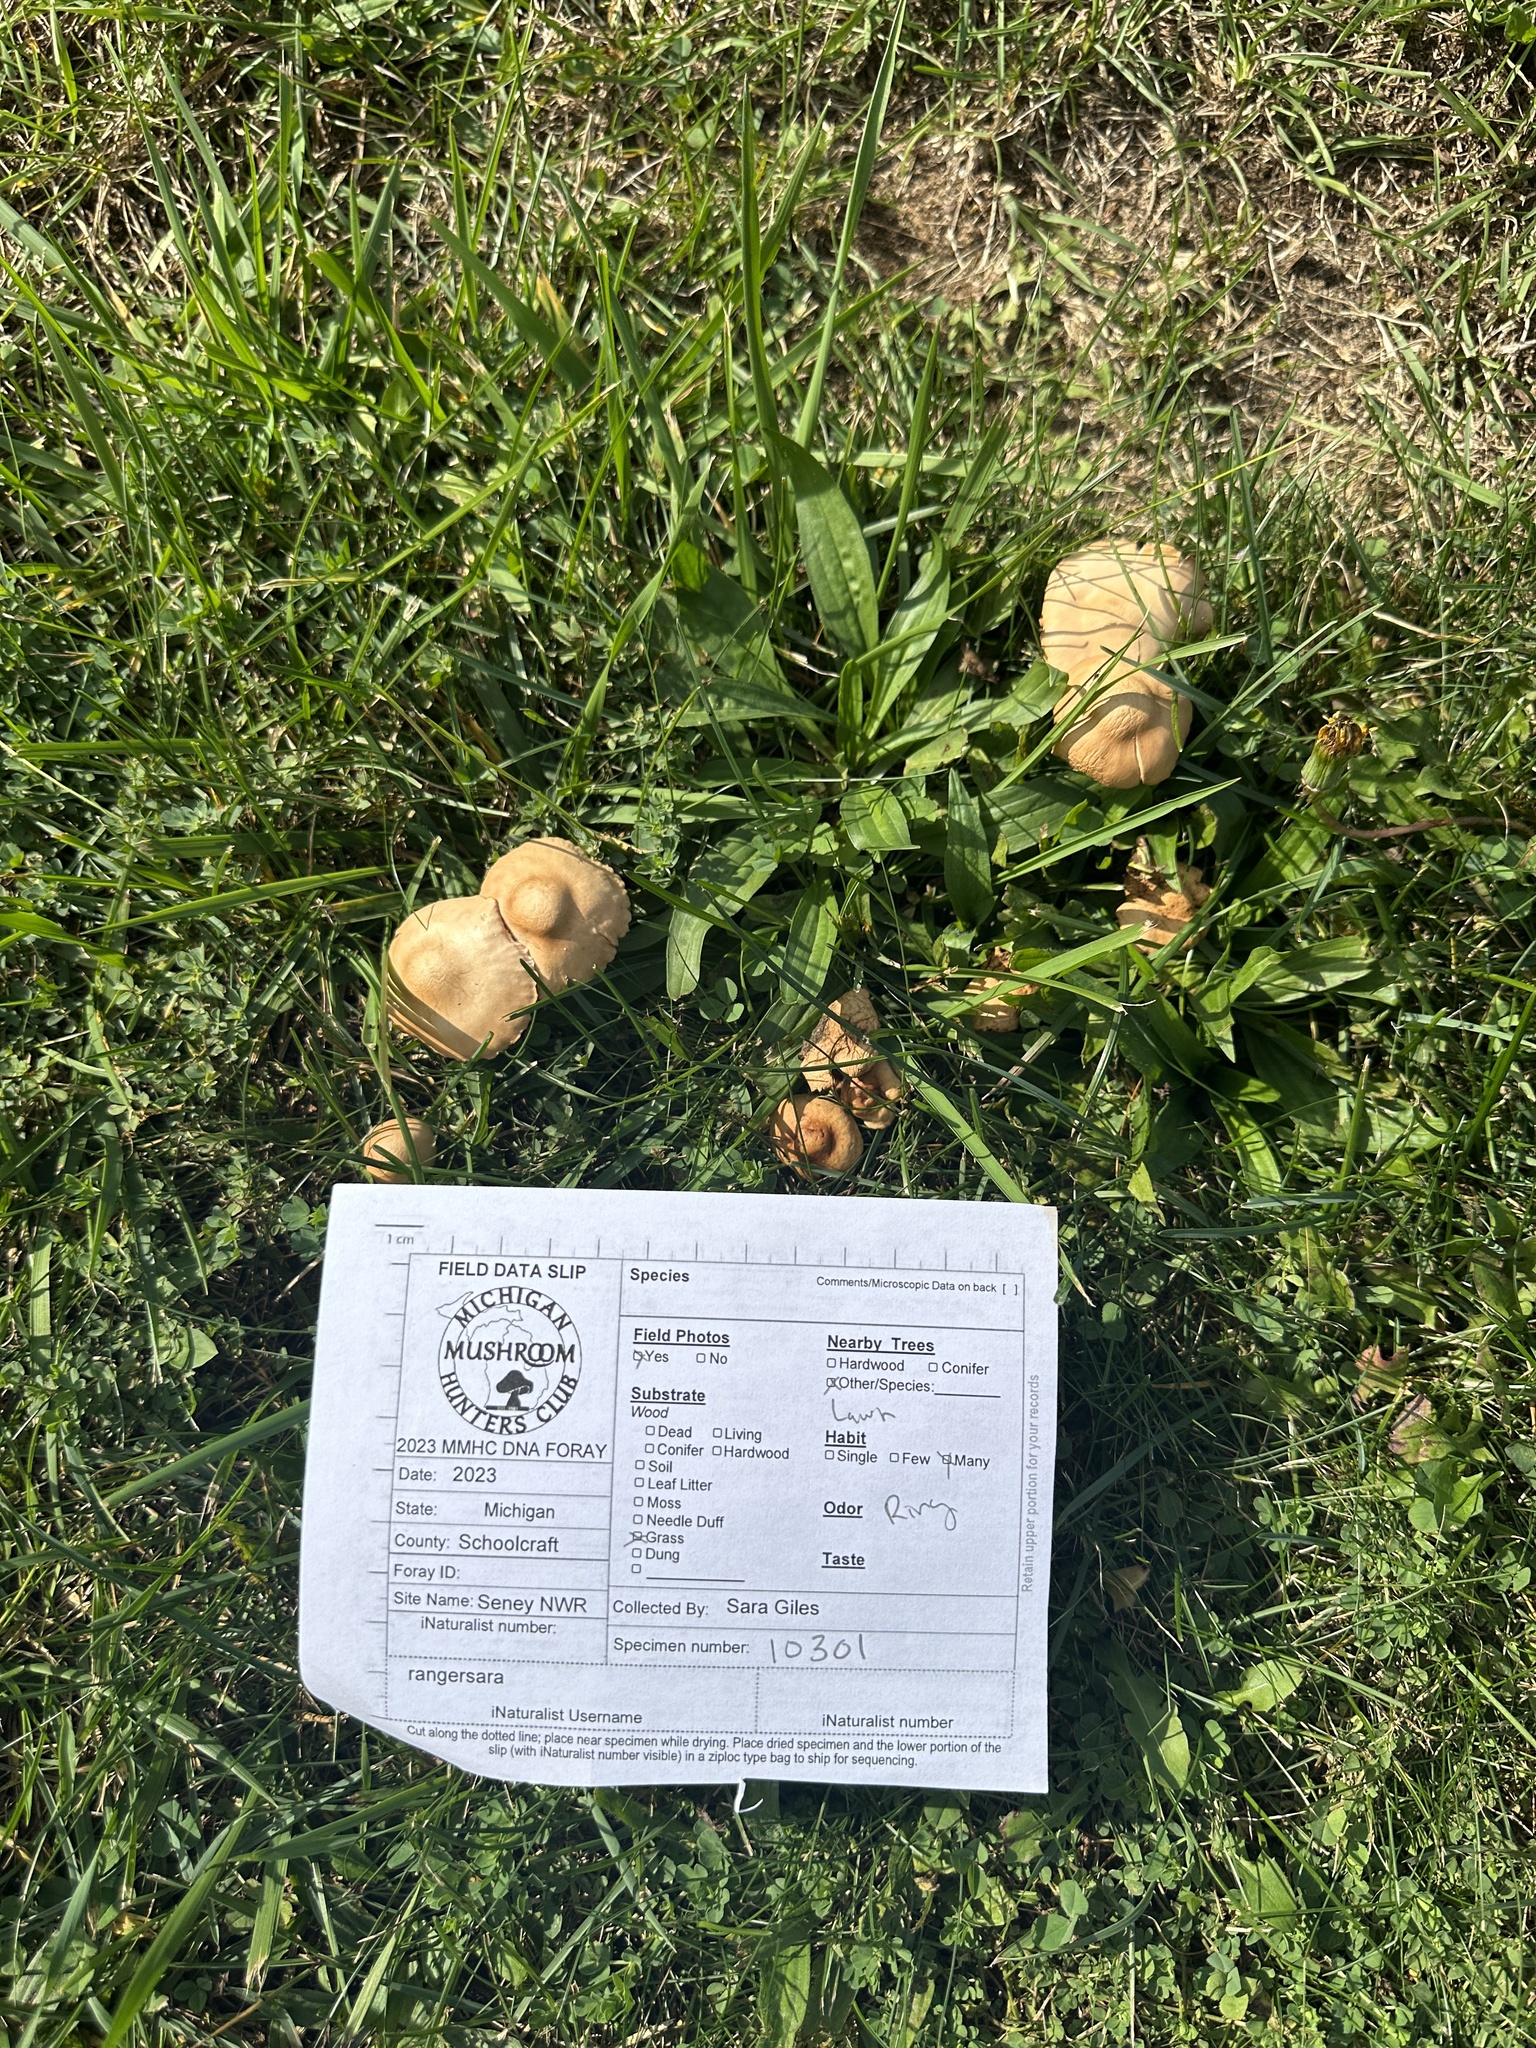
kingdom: Fungi
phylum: Basidiomycota
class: Agaricomycetes
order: Agaricales
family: Marasmiaceae
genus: Marasmius
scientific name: Marasmius oreades
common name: Fairy ring champignon
